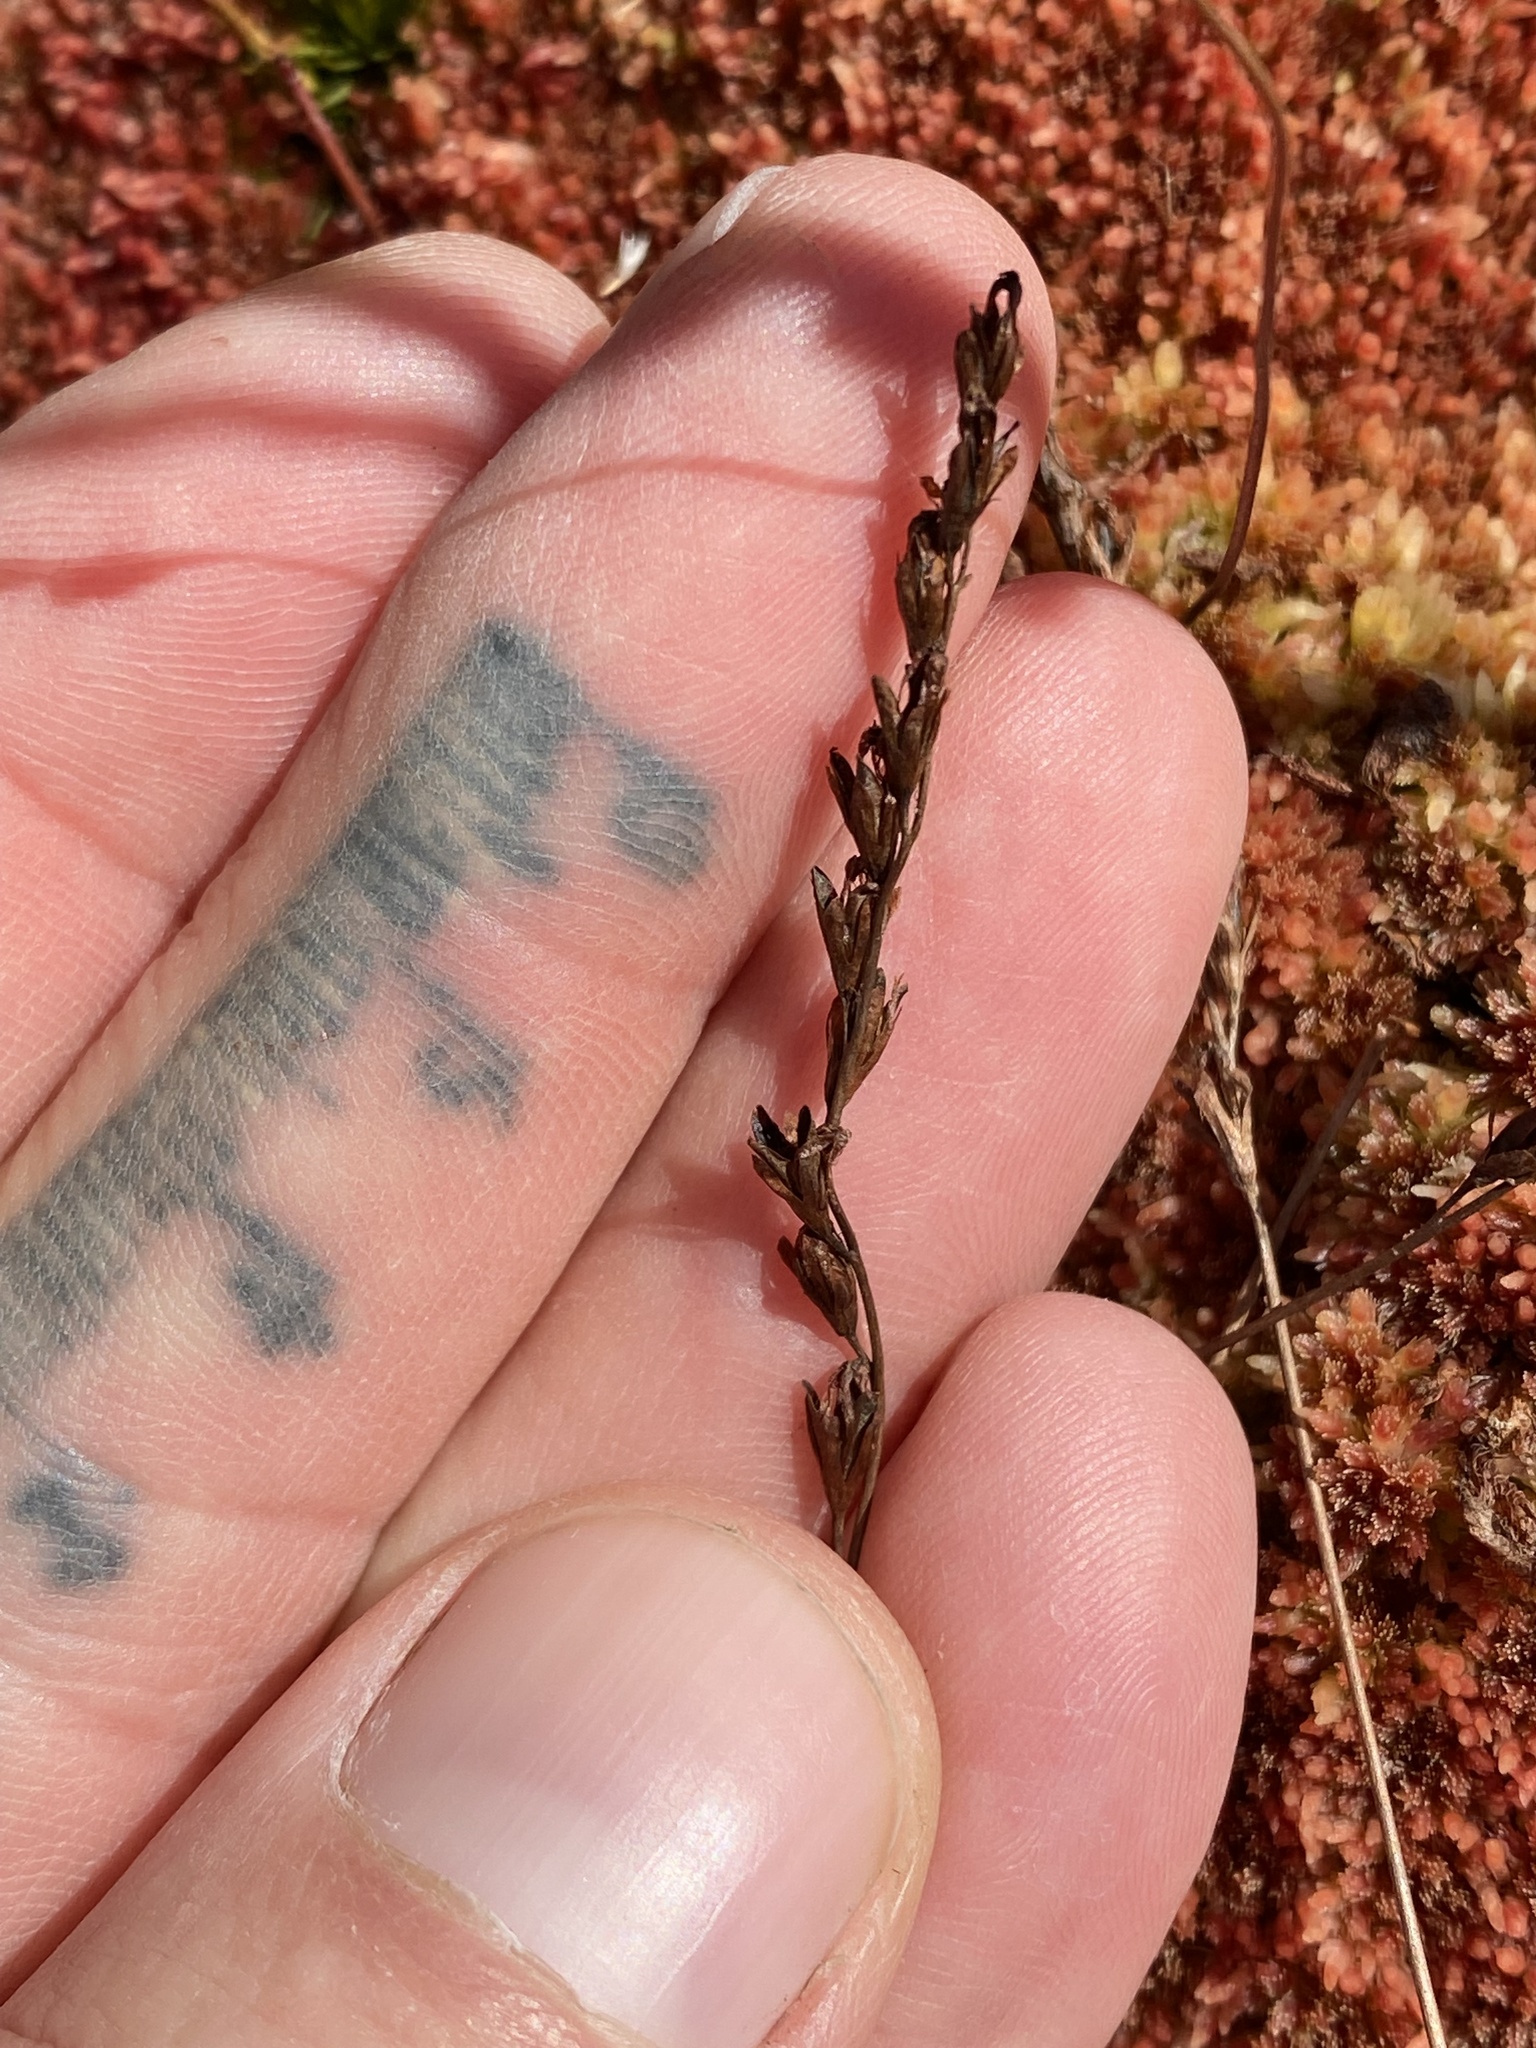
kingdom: Plantae
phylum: Tracheophyta
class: Magnoliopsida
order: Caryophyllales
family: Droseraceae
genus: Drosera
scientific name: Drosera rotundifolia
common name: Round-leaved sundew
